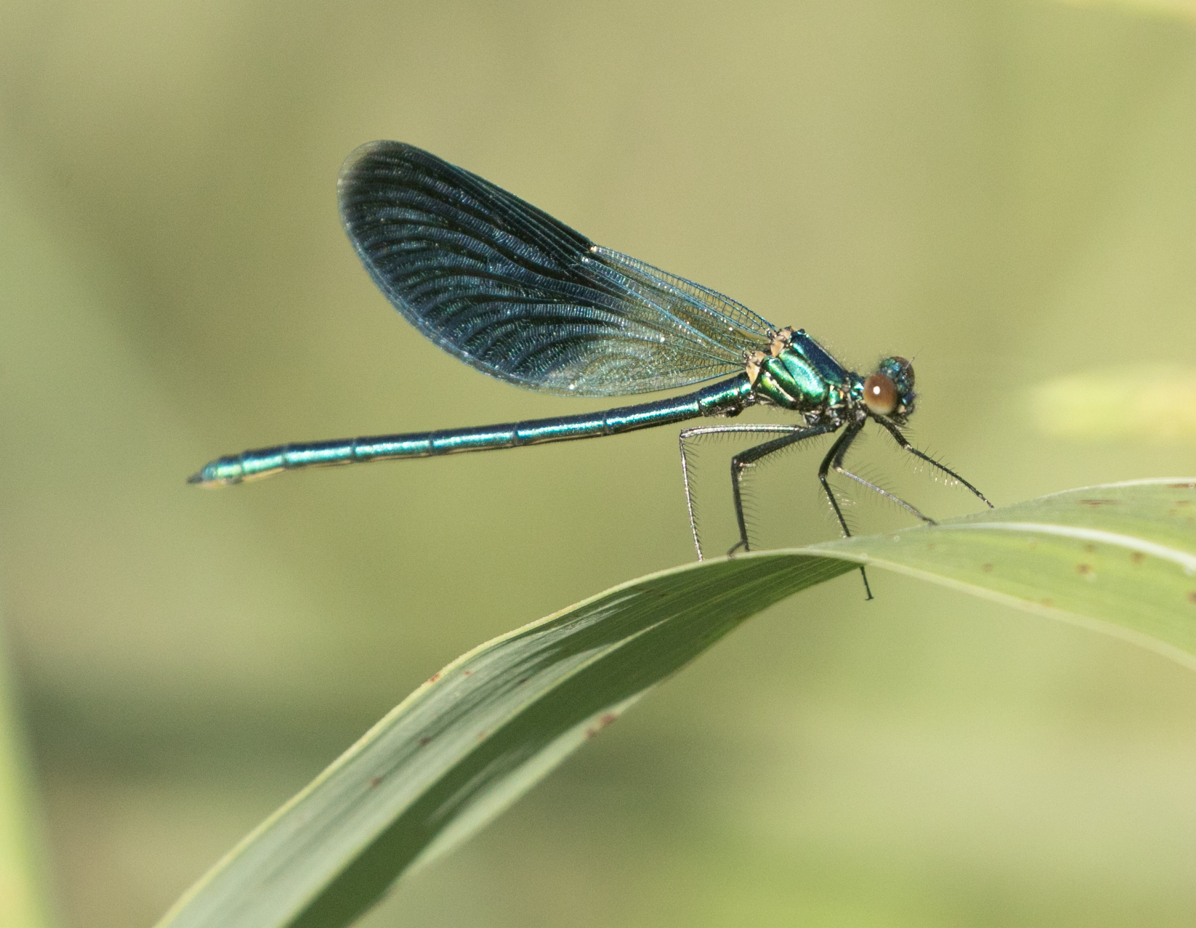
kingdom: Animalia
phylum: Arthropoda
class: Insecta
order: Odonata
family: Calopterygidae
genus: Calopteryx
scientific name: Calopteryx splendens
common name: Banded demoiselle
